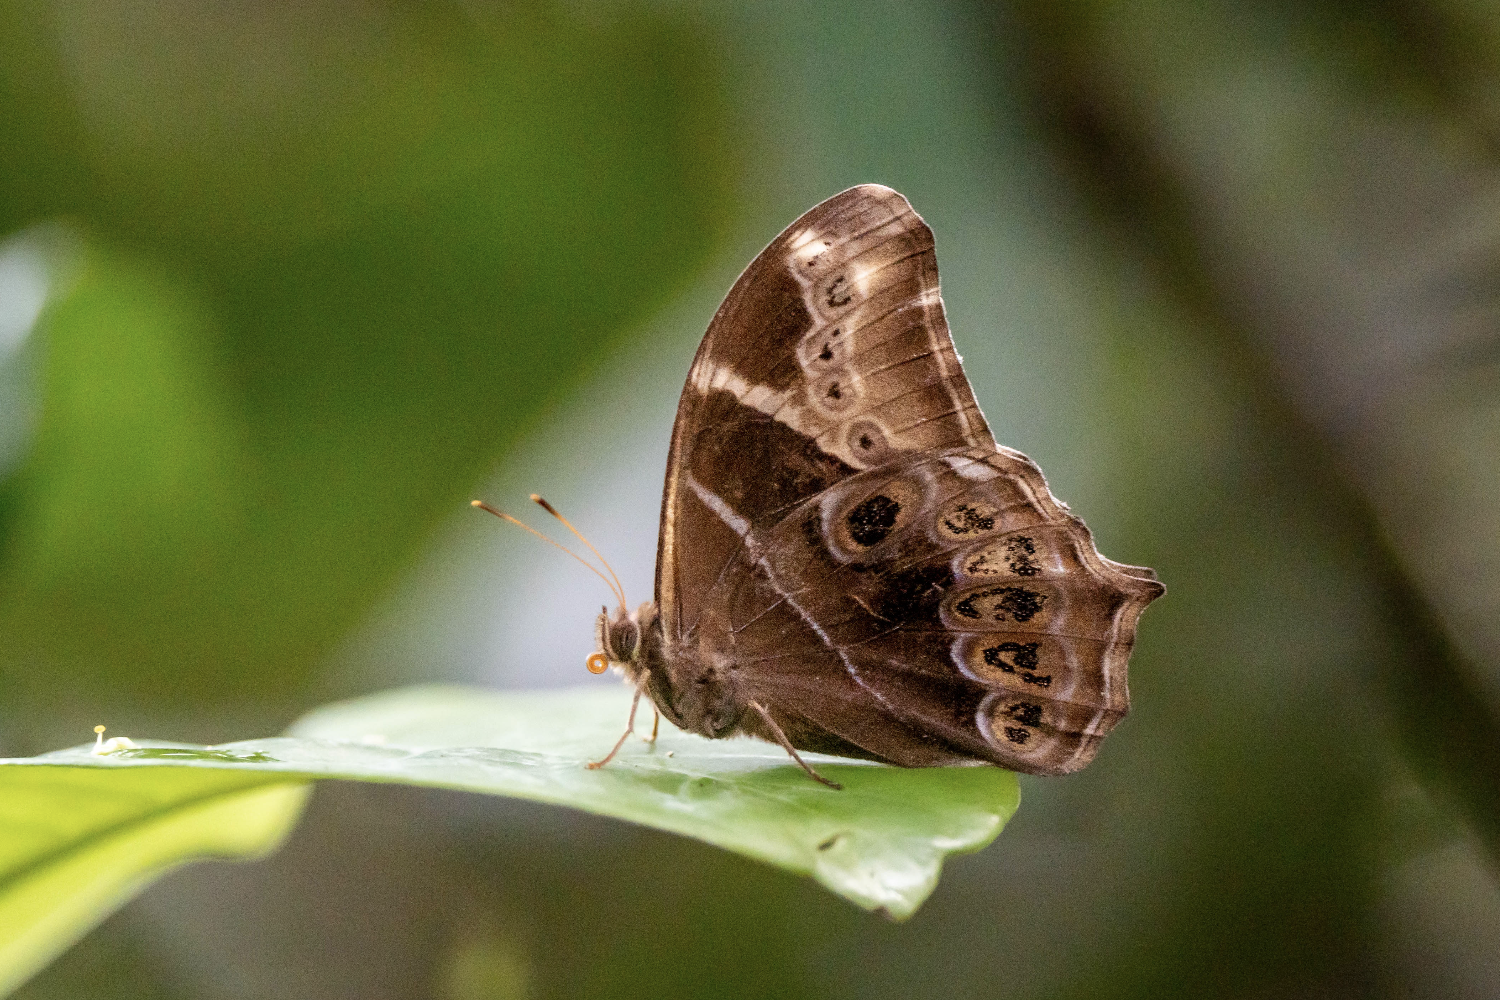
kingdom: Animalia
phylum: Arthropoda
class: Insecta
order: Lepidoptera
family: Nymphalidae
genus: Lethe
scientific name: Lethe europa
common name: Bamboo treebrown
